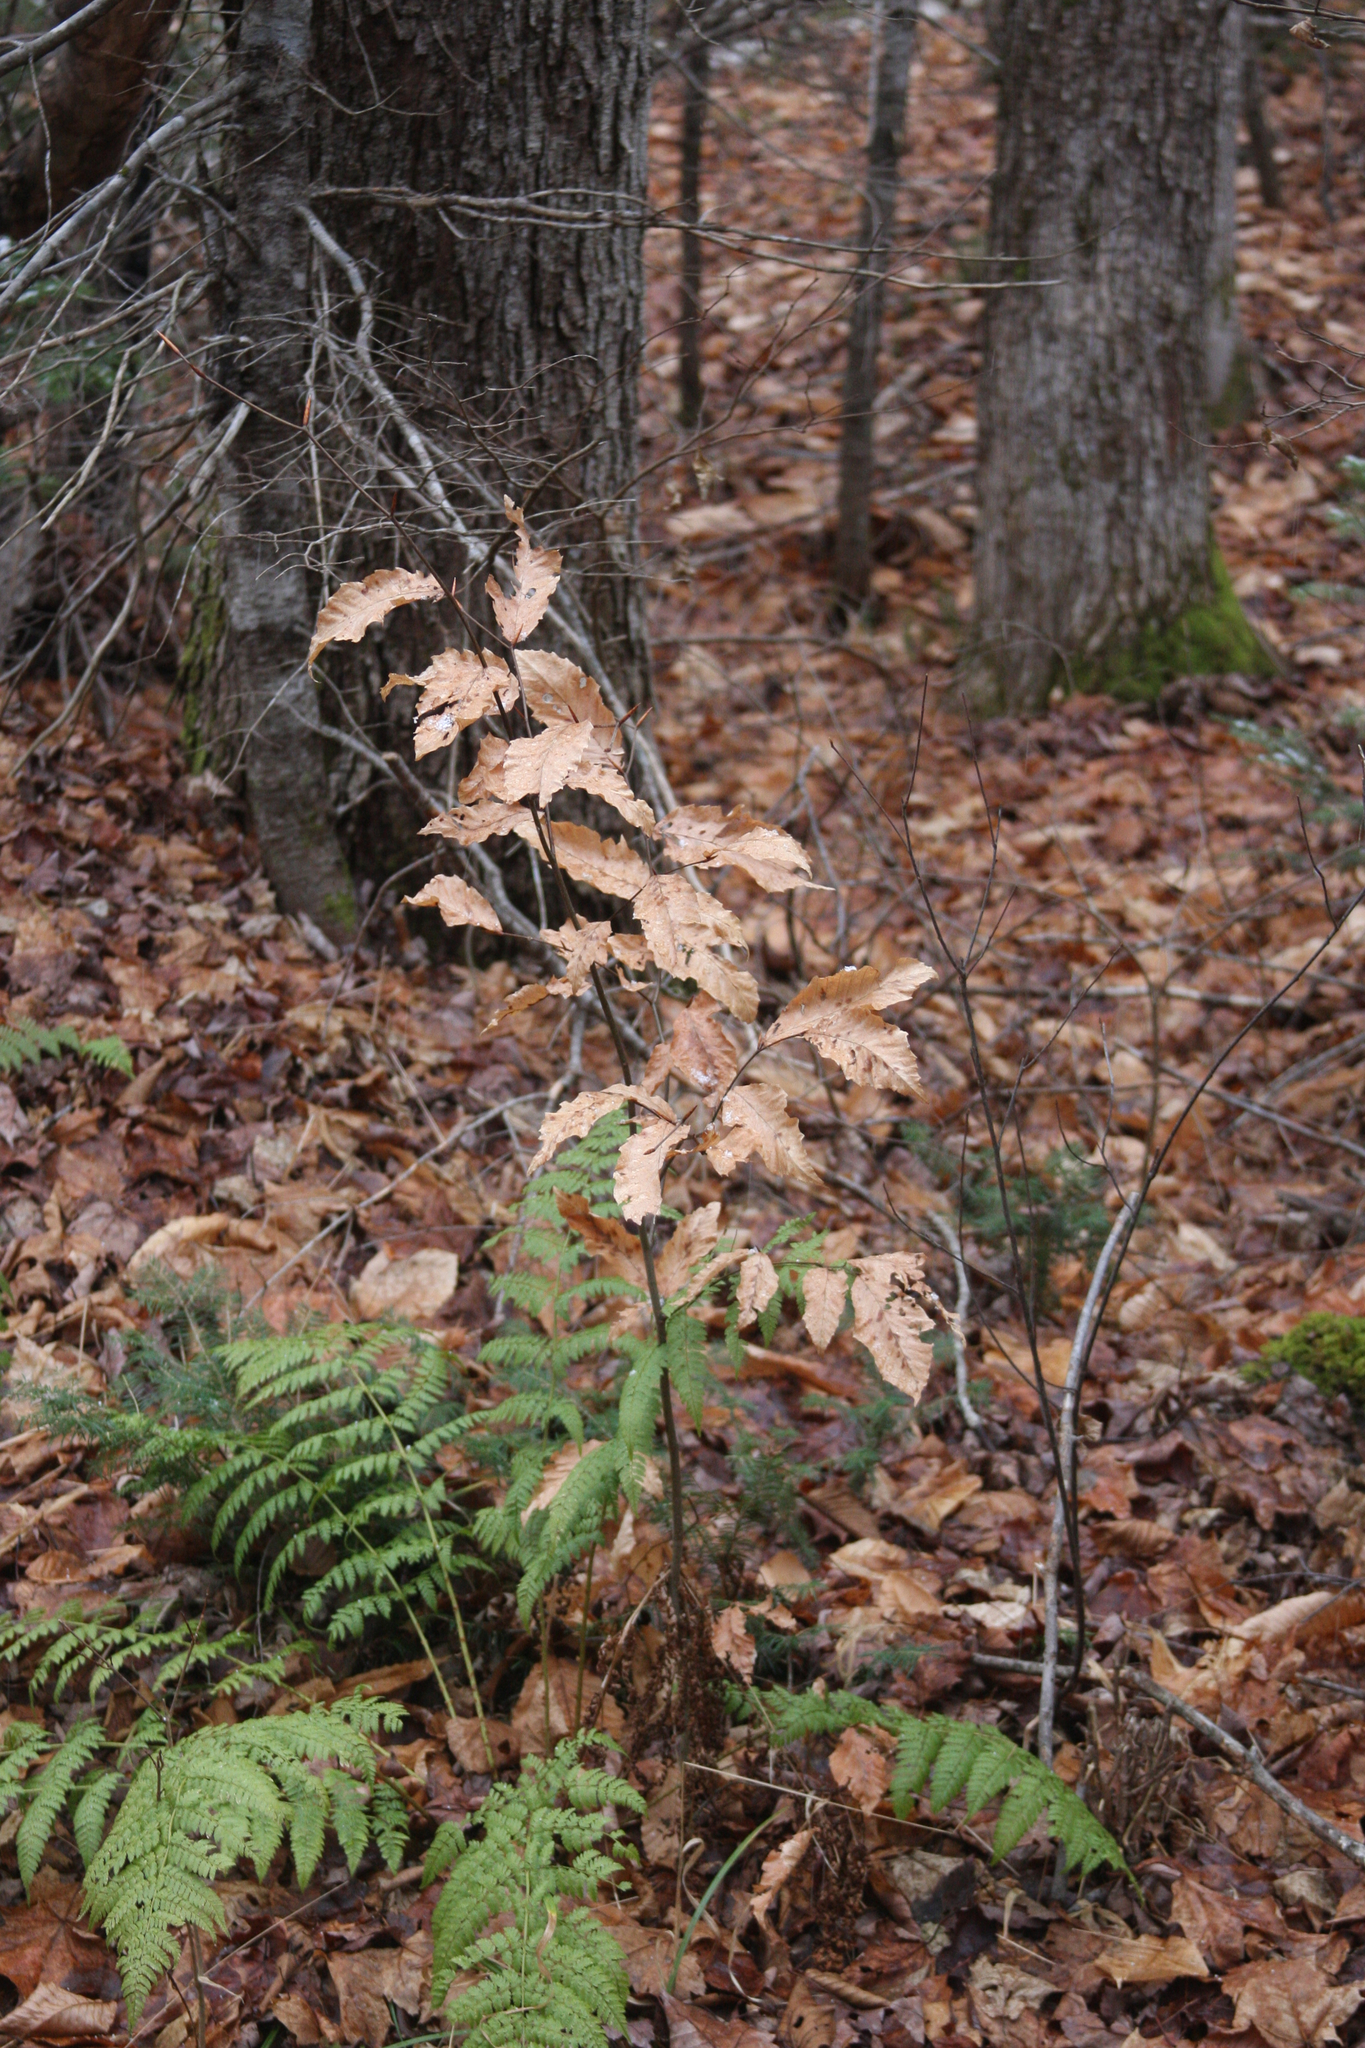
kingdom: Plantae
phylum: Tracheophyta
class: Magnoliopsida
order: Fagales
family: Fagaceae
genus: Fagus
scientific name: Fagus grandifolia
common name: American beech
